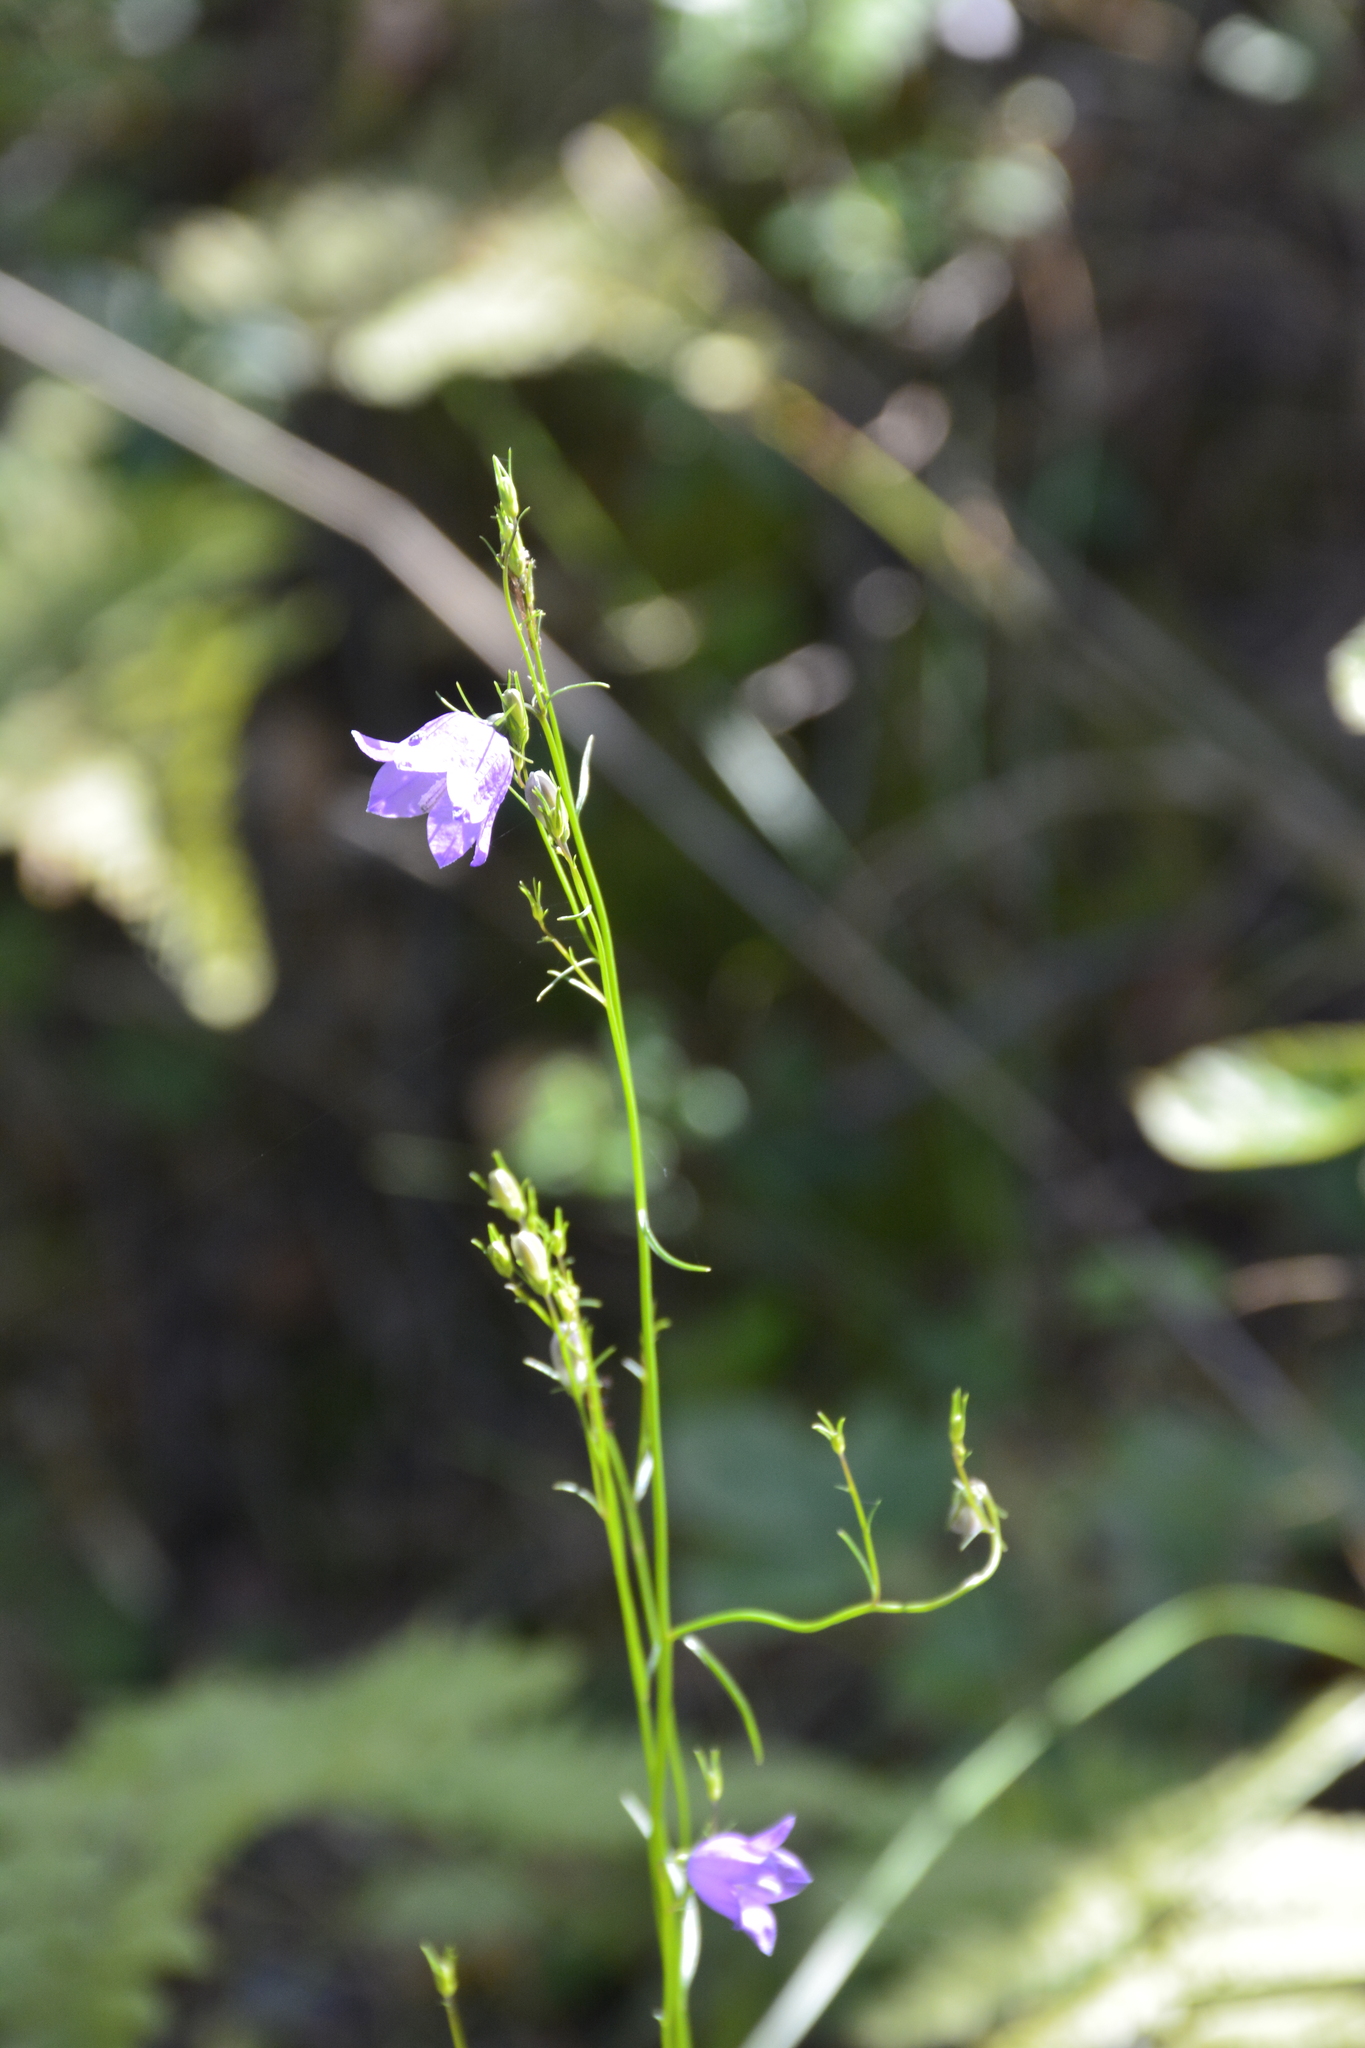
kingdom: Plantae
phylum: Tracheophyta
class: Magnoliopsida
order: Asterales
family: Campanulaceae
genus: Campanula
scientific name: Campanula persicifolia
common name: Peach-leaved bellflower
